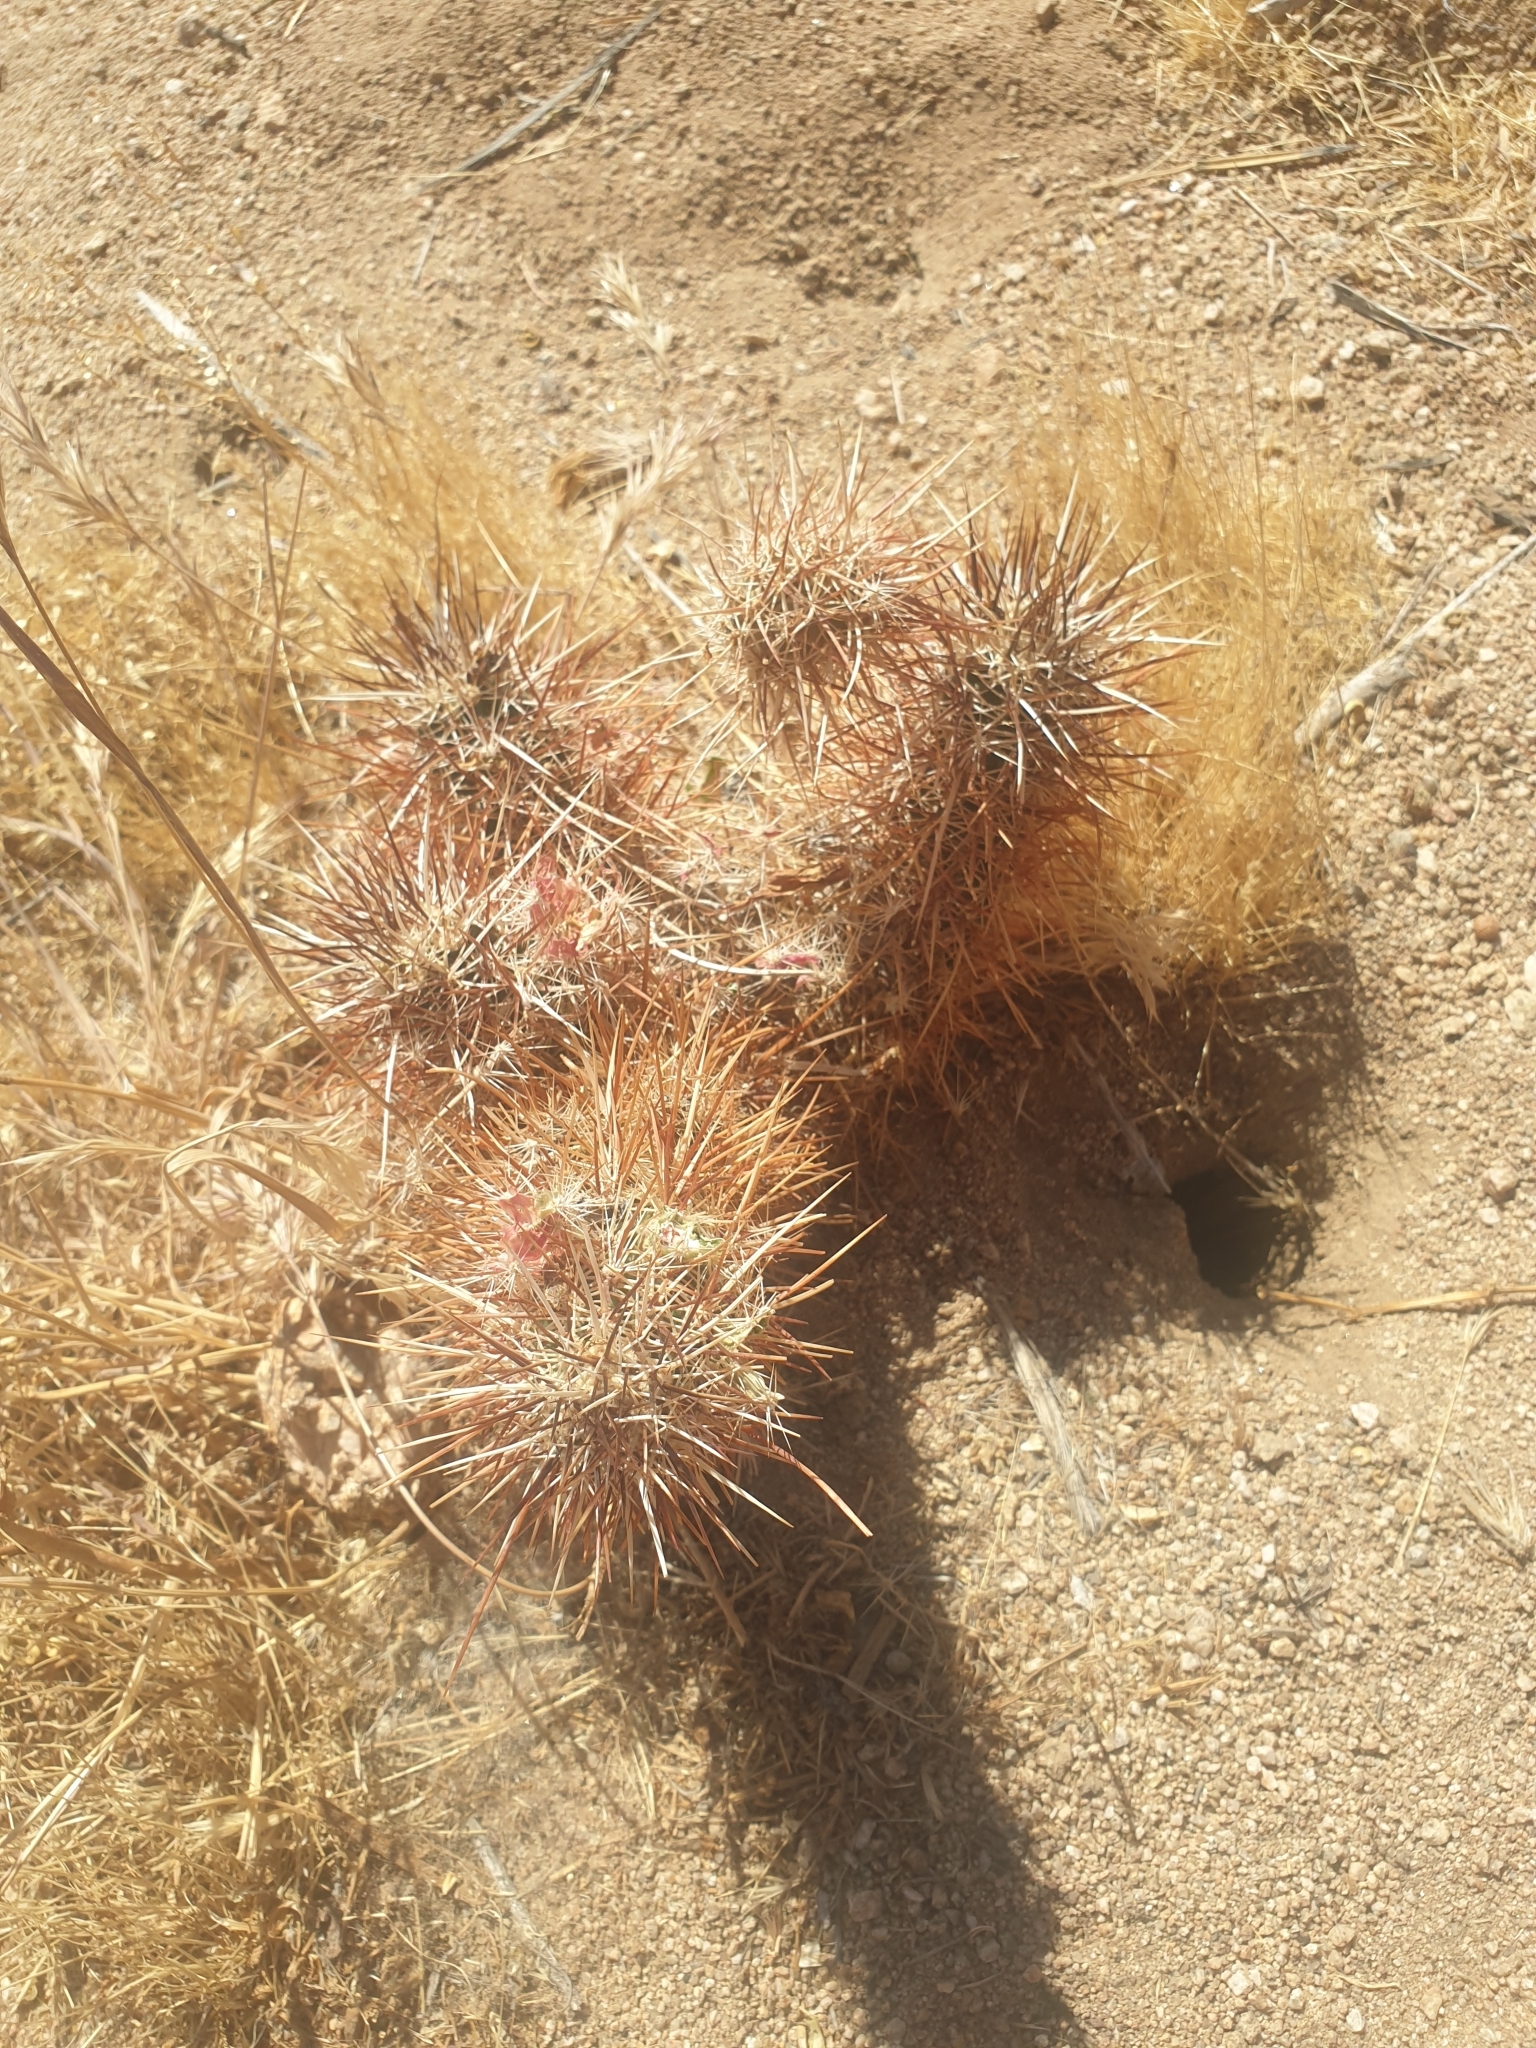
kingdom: Plantae
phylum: Tracheophyta
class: Magnoliopsida
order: Caryophyllales
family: Cactaceae
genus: Echinocereus
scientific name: Echinocereus engelmannii
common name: Engelmann's hedgehog cactus
